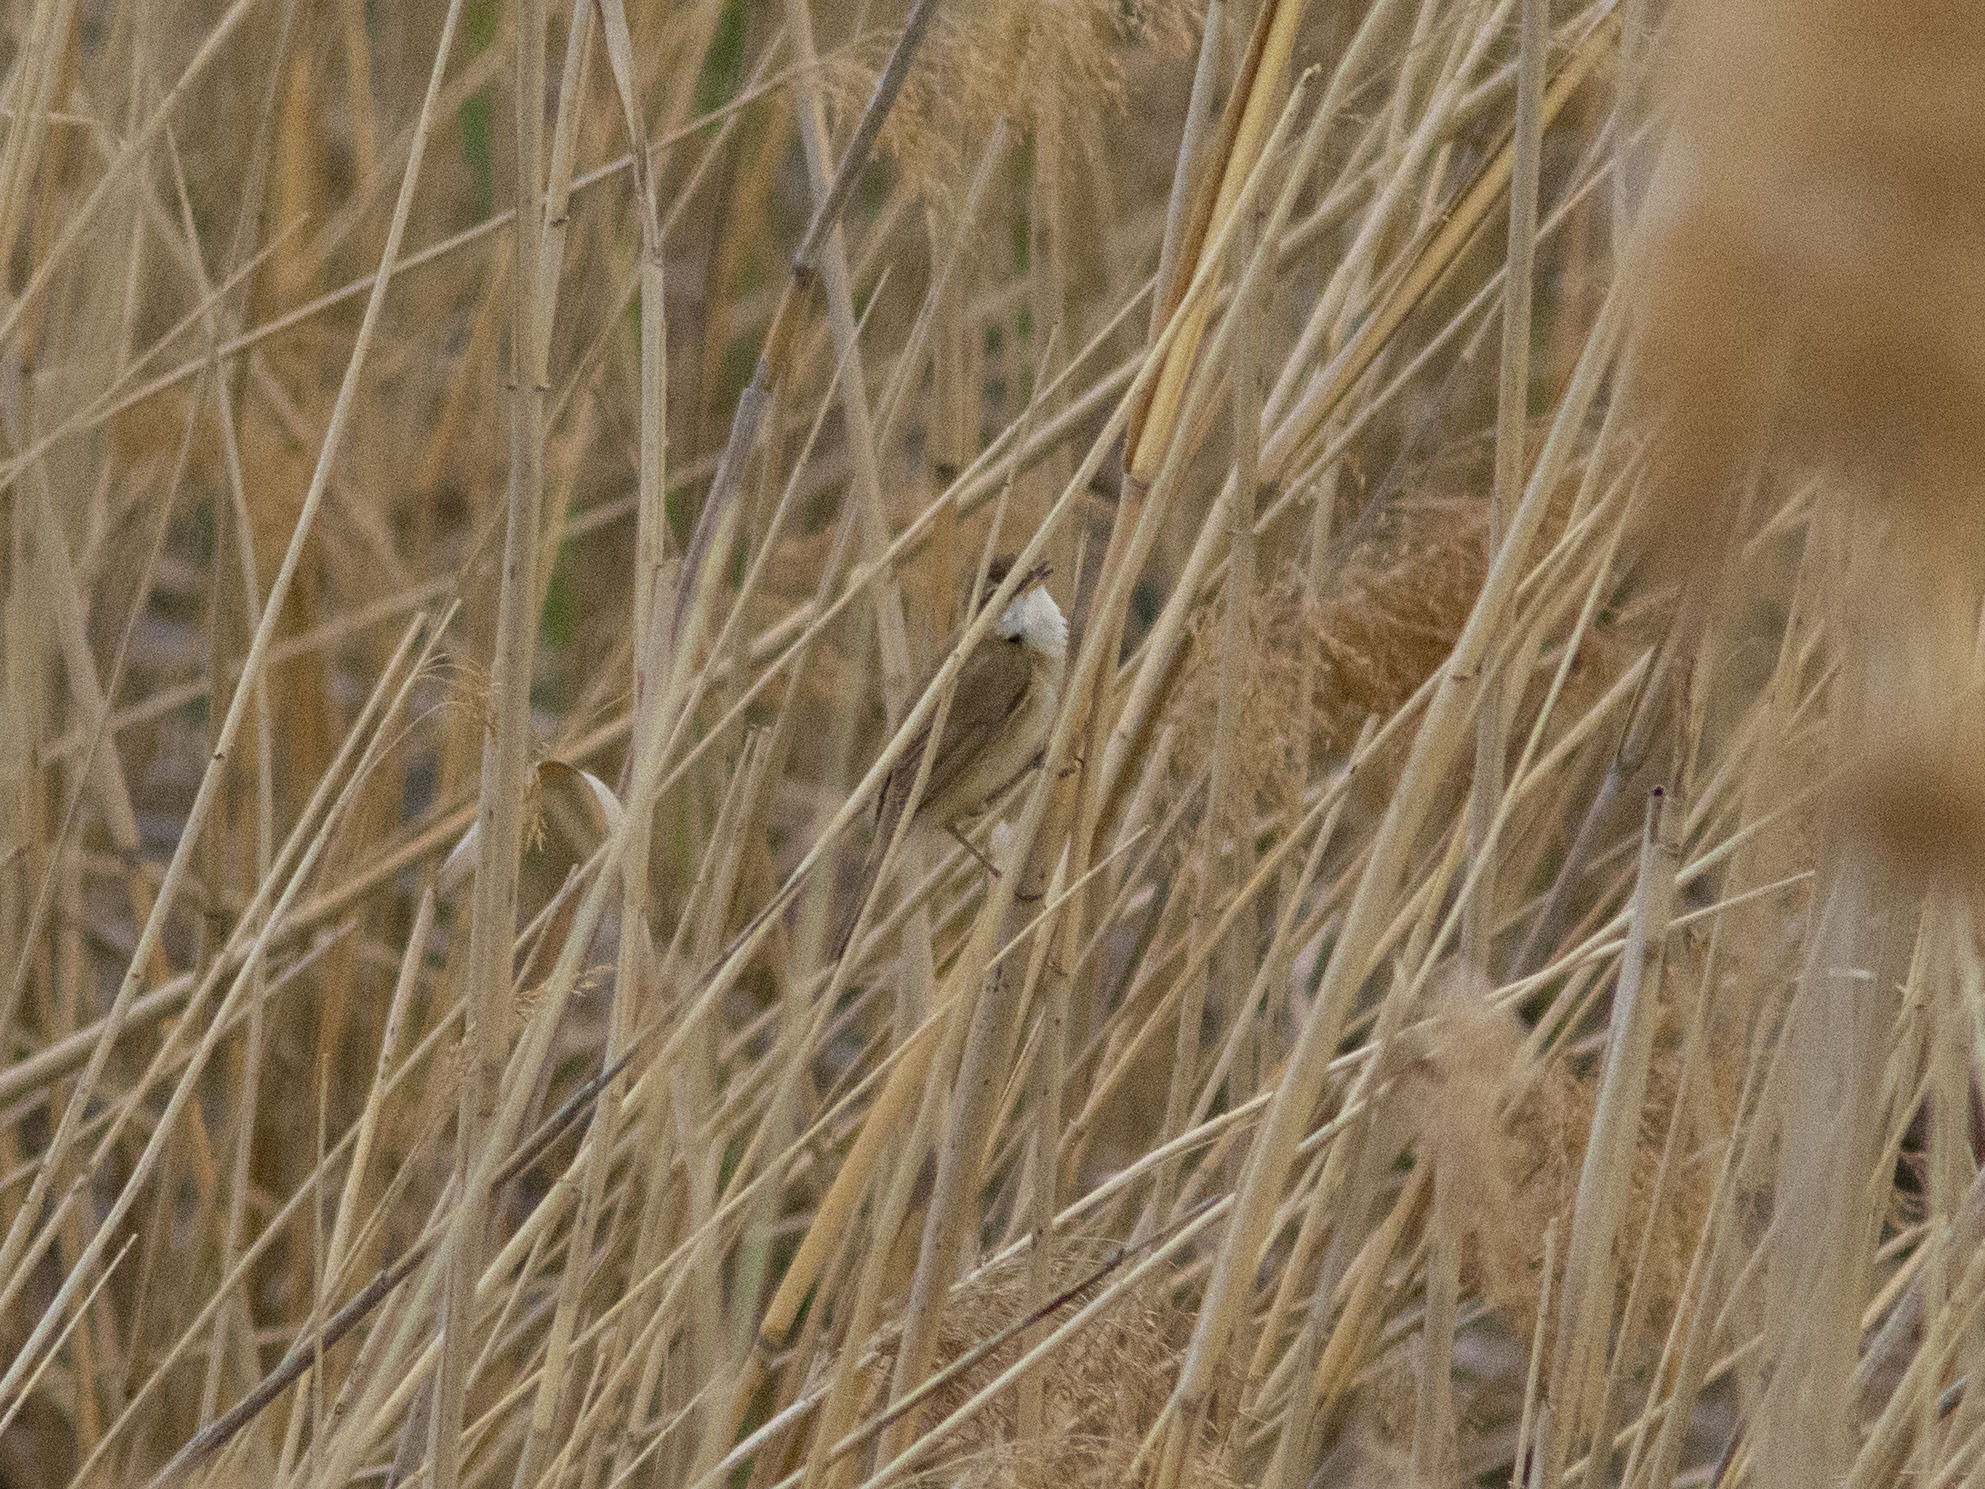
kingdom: Animalia
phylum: Chordata
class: Aves
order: Passeriformes
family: Acrocephalidae
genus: Acrocephalus
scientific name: Acrocephalus agricola
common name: Paddyfield warbler
